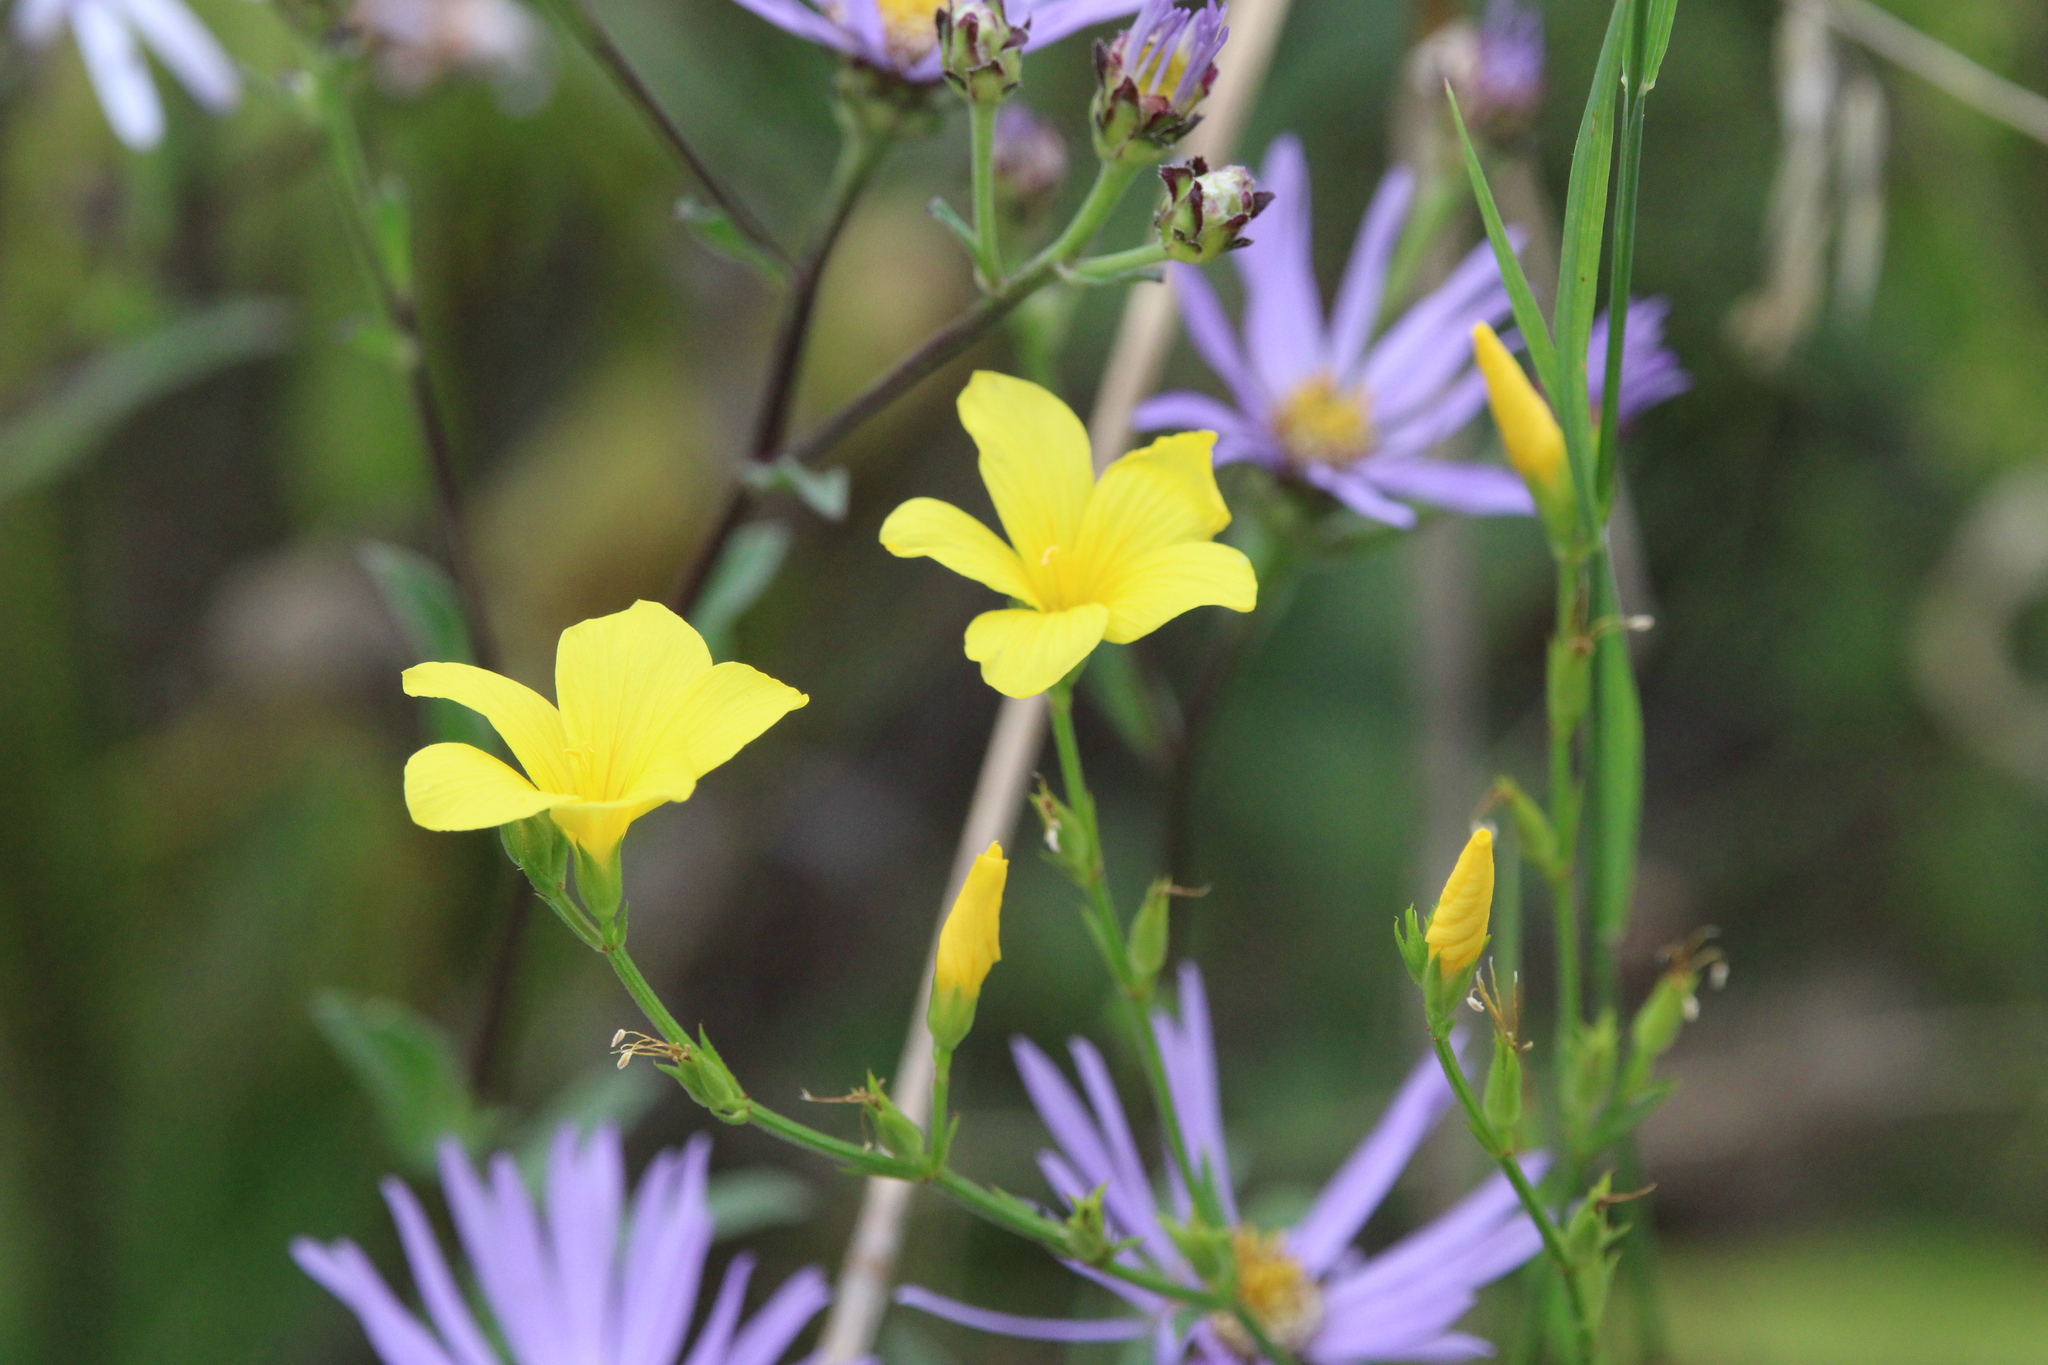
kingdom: Plantae
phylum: Tracheophyta
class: Magnoliopsida
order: Malpighiales
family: Linaceae
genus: Linum
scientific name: Linum flavum
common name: Yellow flax
